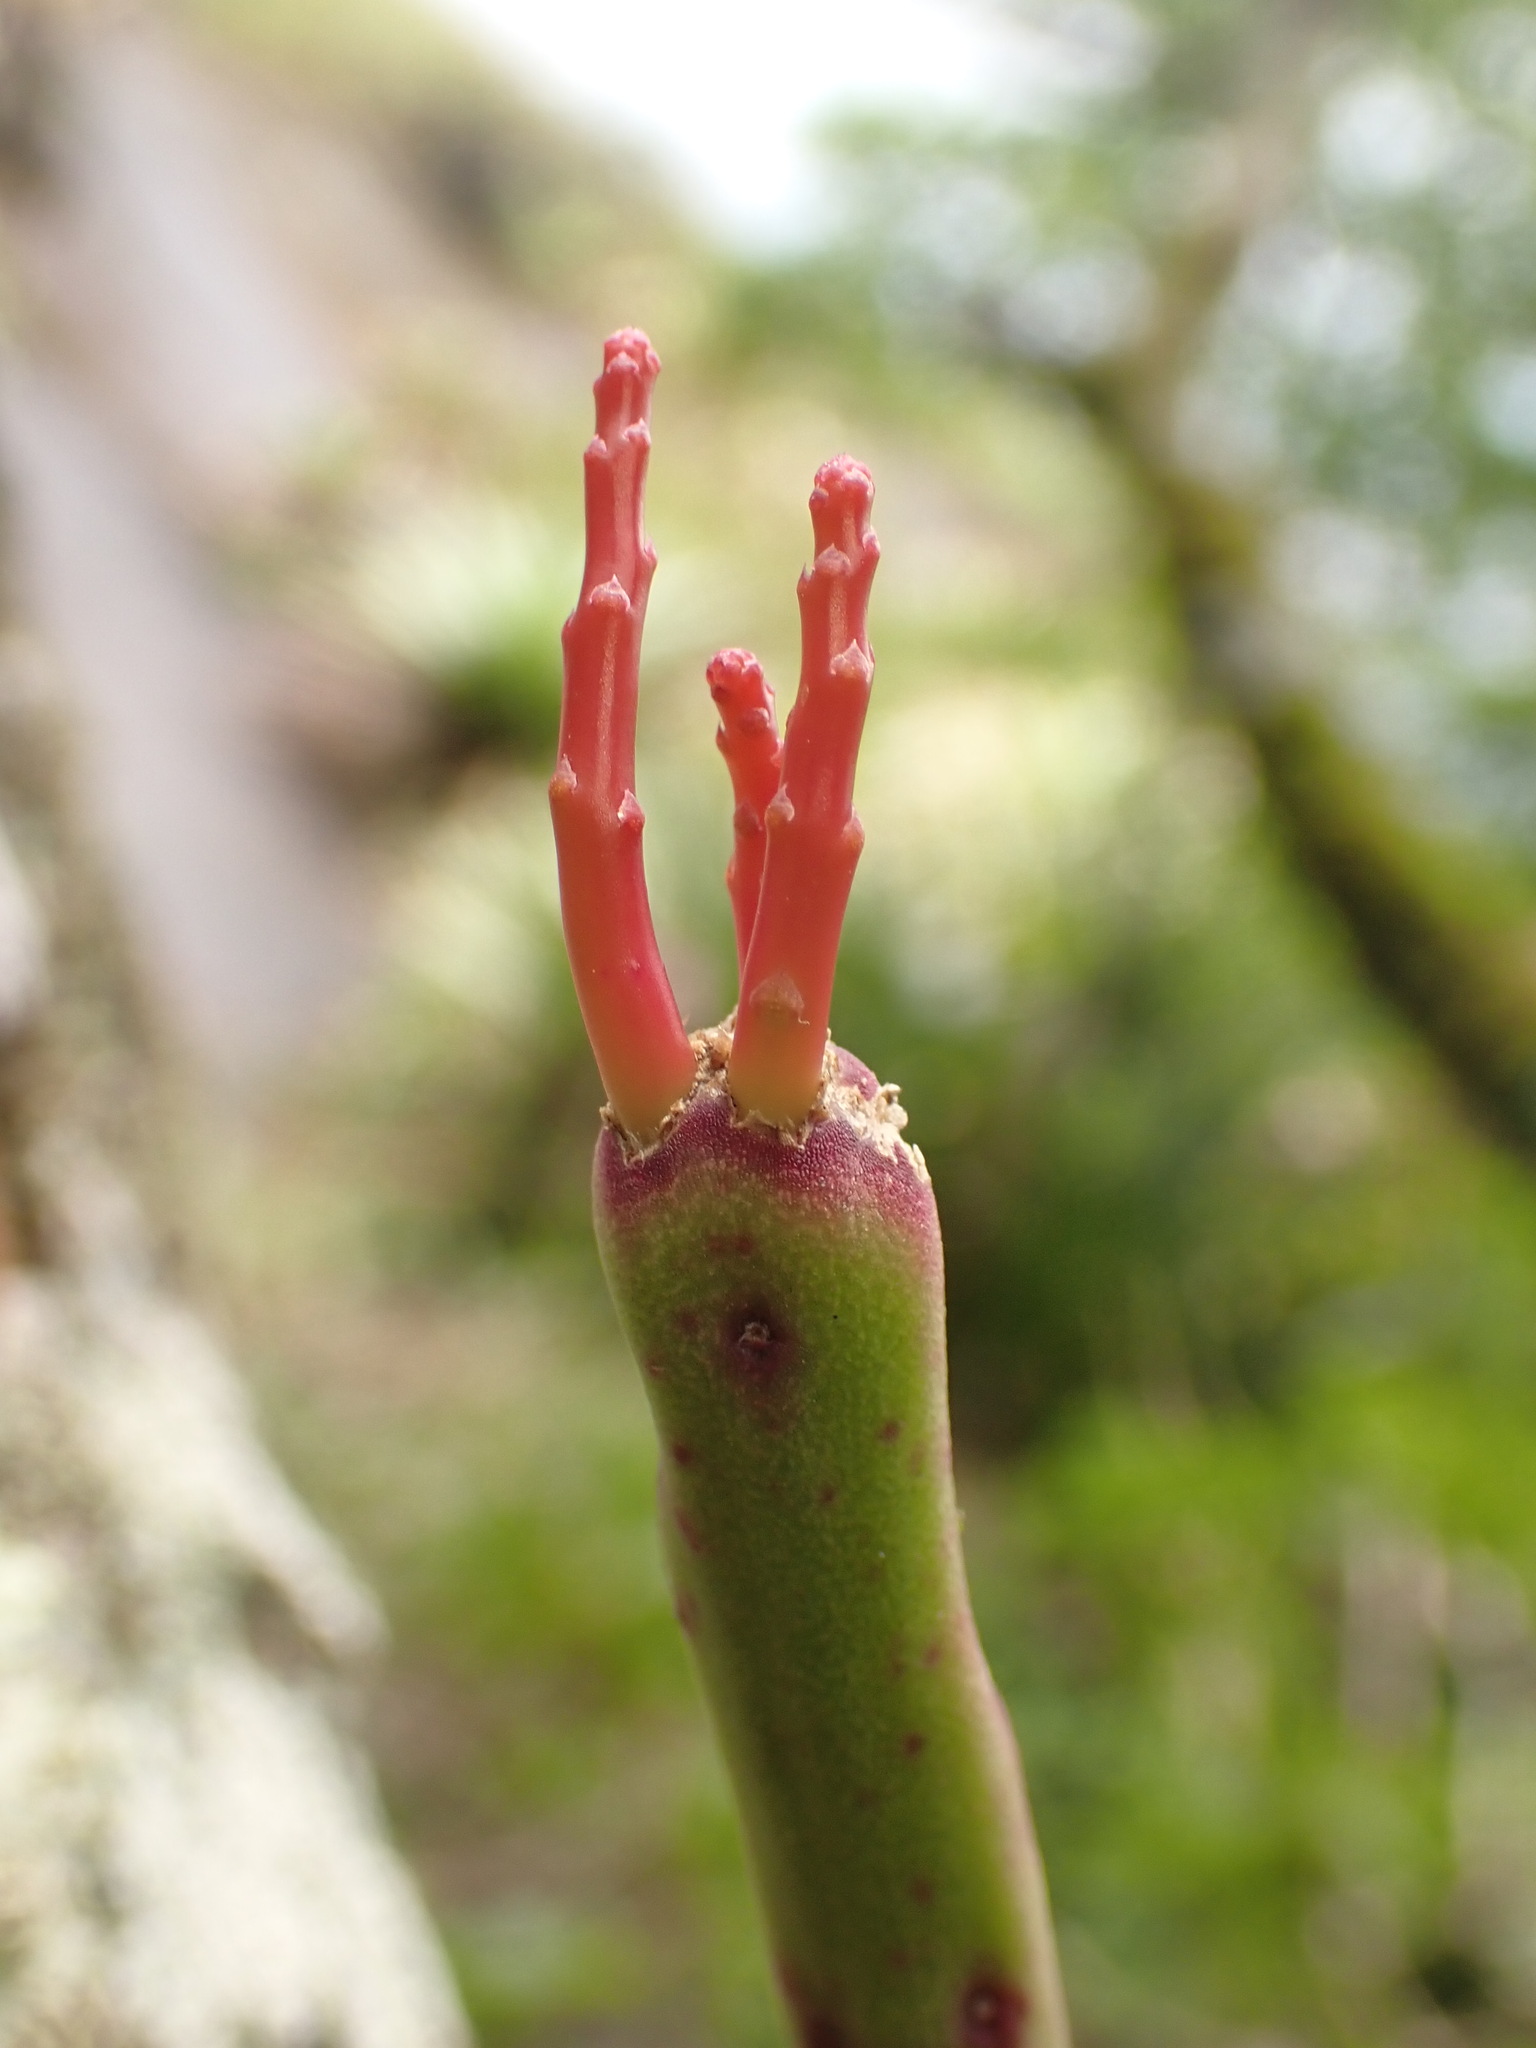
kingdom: Plantae
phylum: Tracheophyta
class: Magnoliopsida
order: Caryophyllales
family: Cactaceae
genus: Rhipsalis
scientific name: Rhipsalis grandiflora
